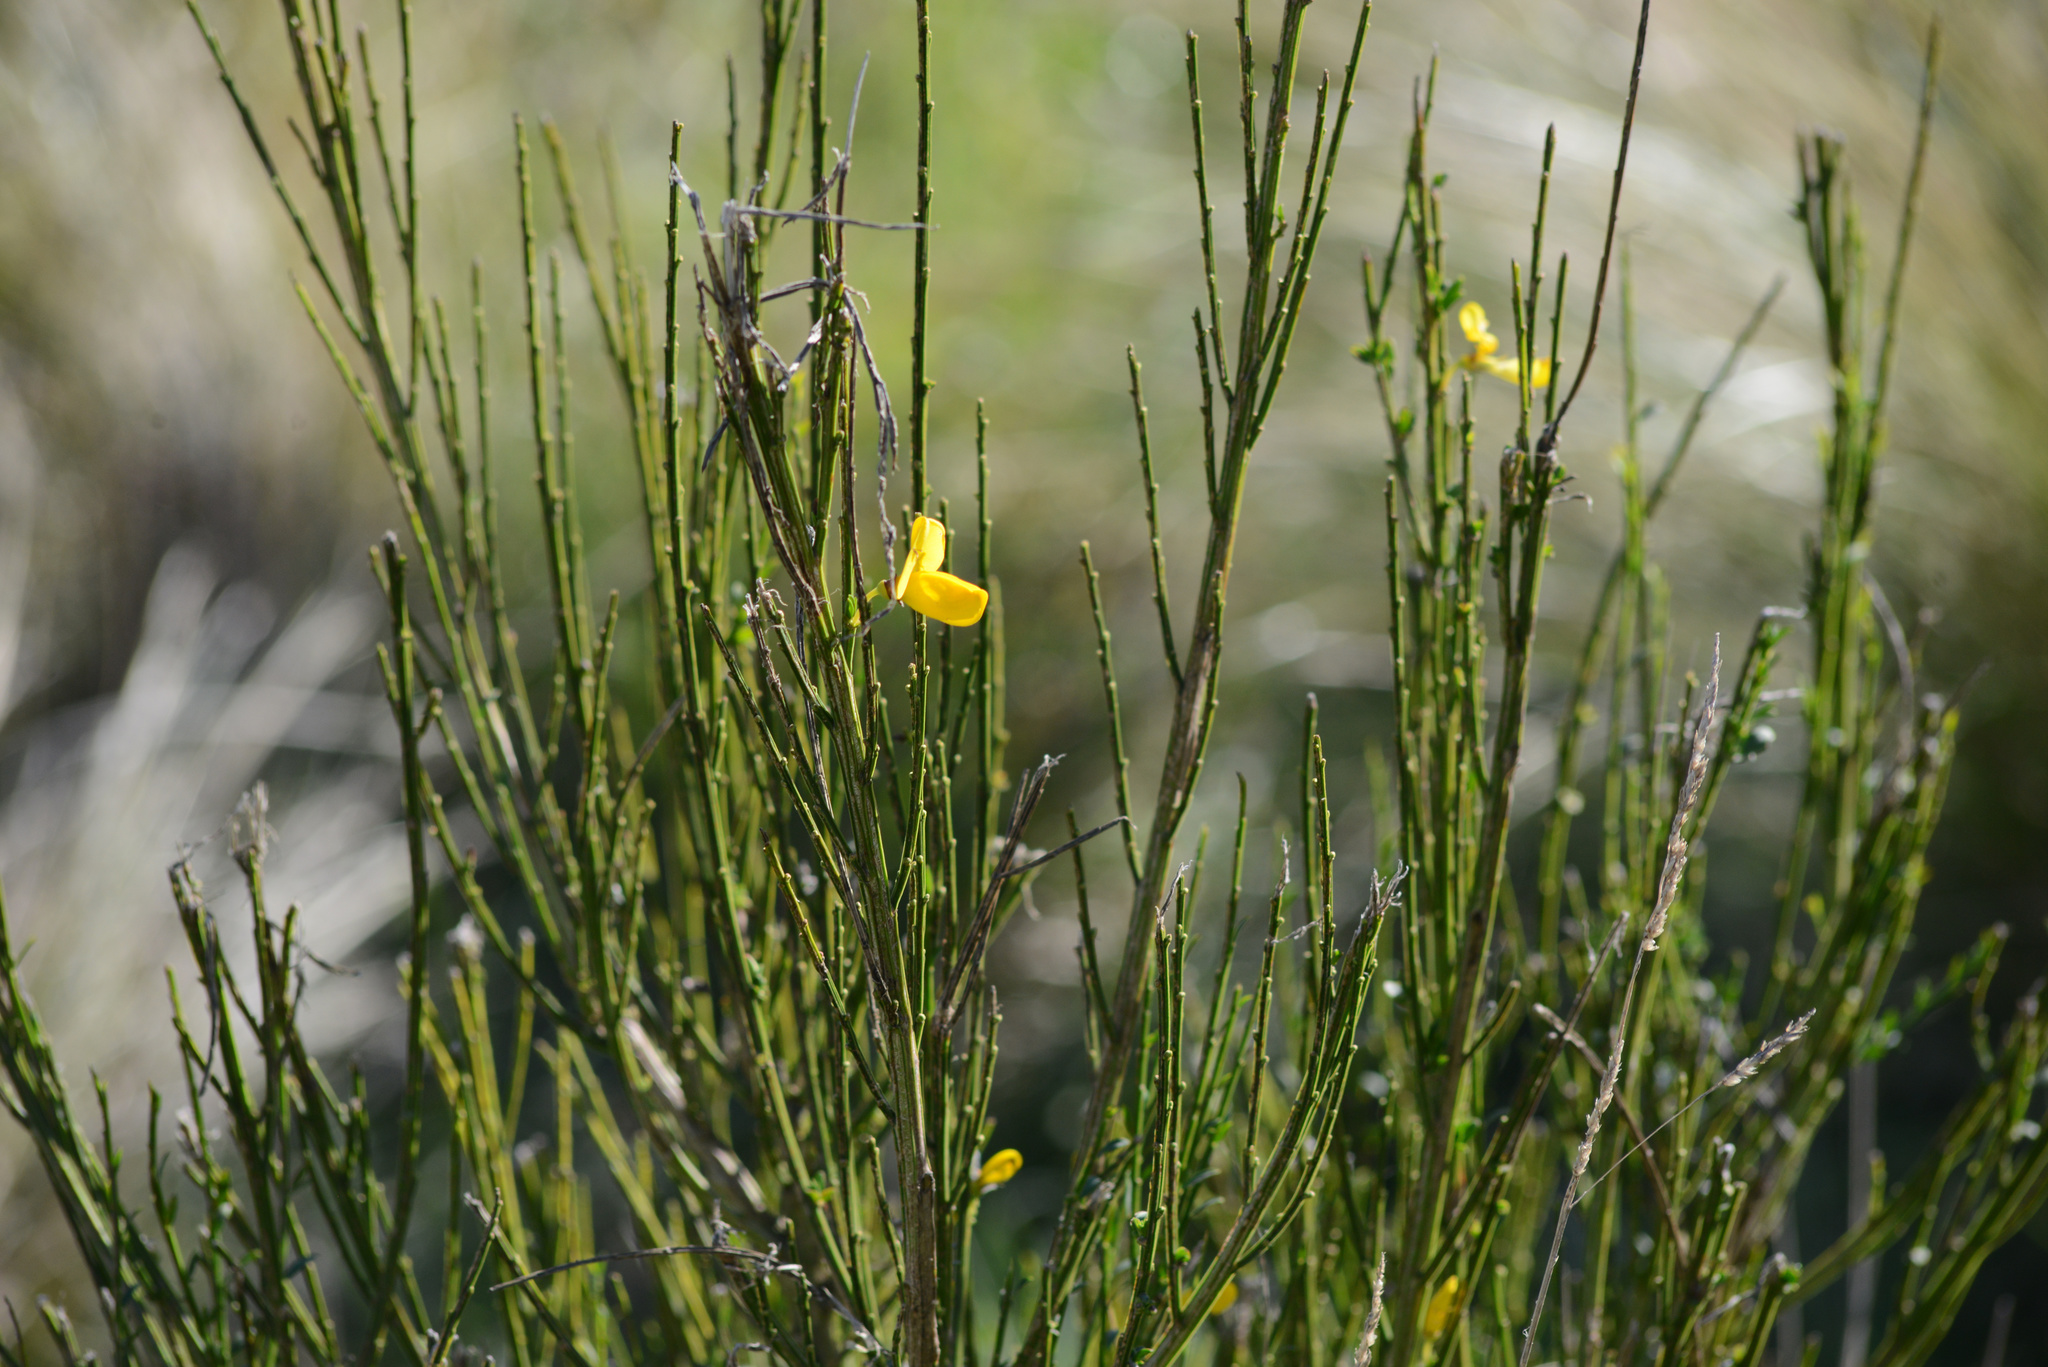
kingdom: Plantae
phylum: Tracheophyta
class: Magnoliopsida
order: Fabales
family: Fabaceae
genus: Cytisus
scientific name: Cytisus scoparius
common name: Scotch broom
